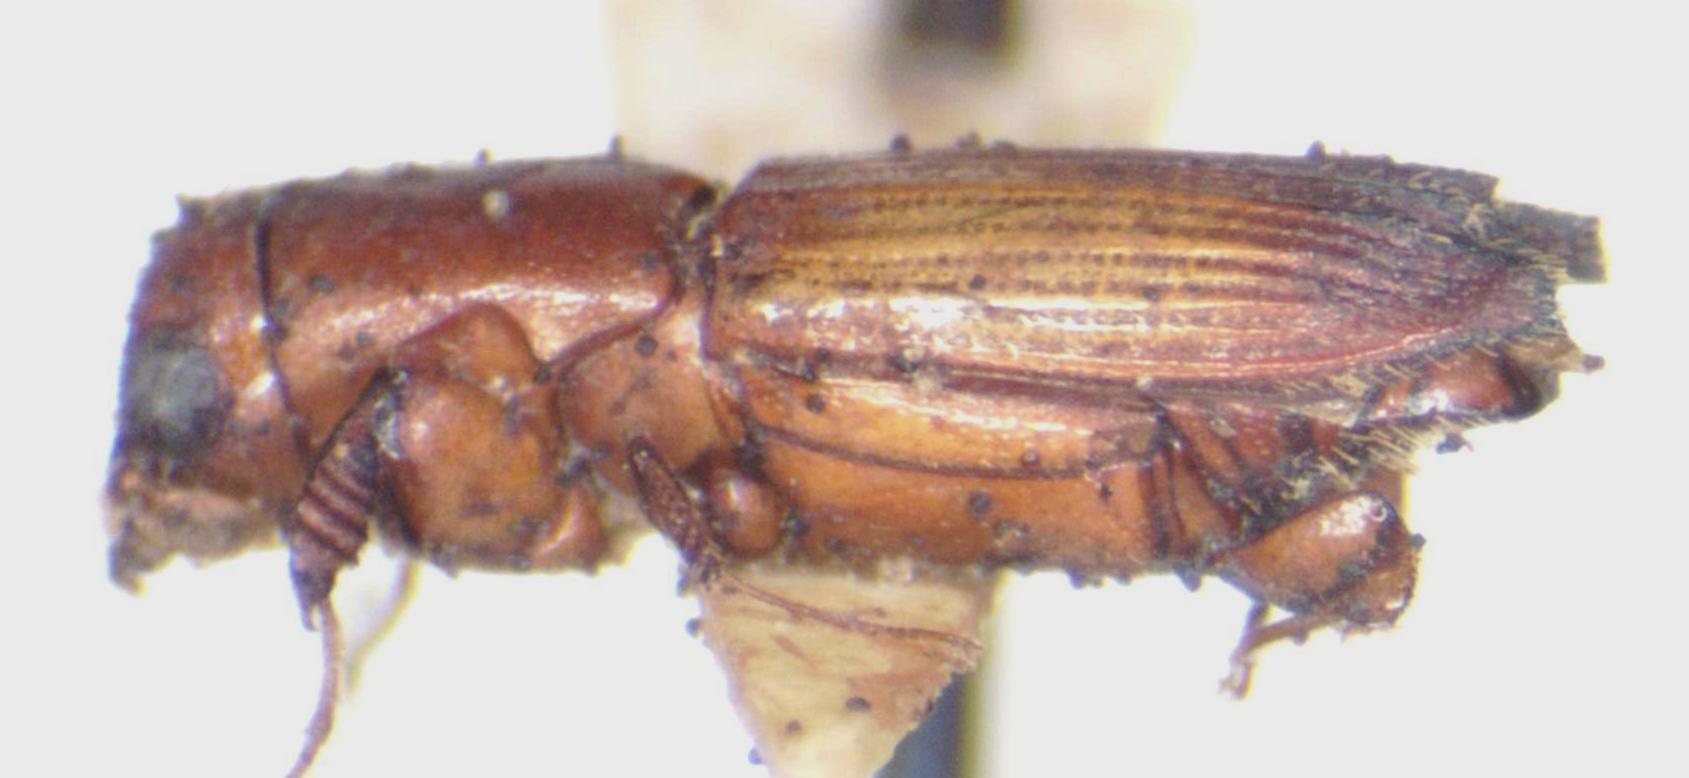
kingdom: Animalia
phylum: Arthropoda
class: Insecta
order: Coleoptera
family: Curculionidae
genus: Euplatypus
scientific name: Euplatypus parallelus
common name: Weevil
